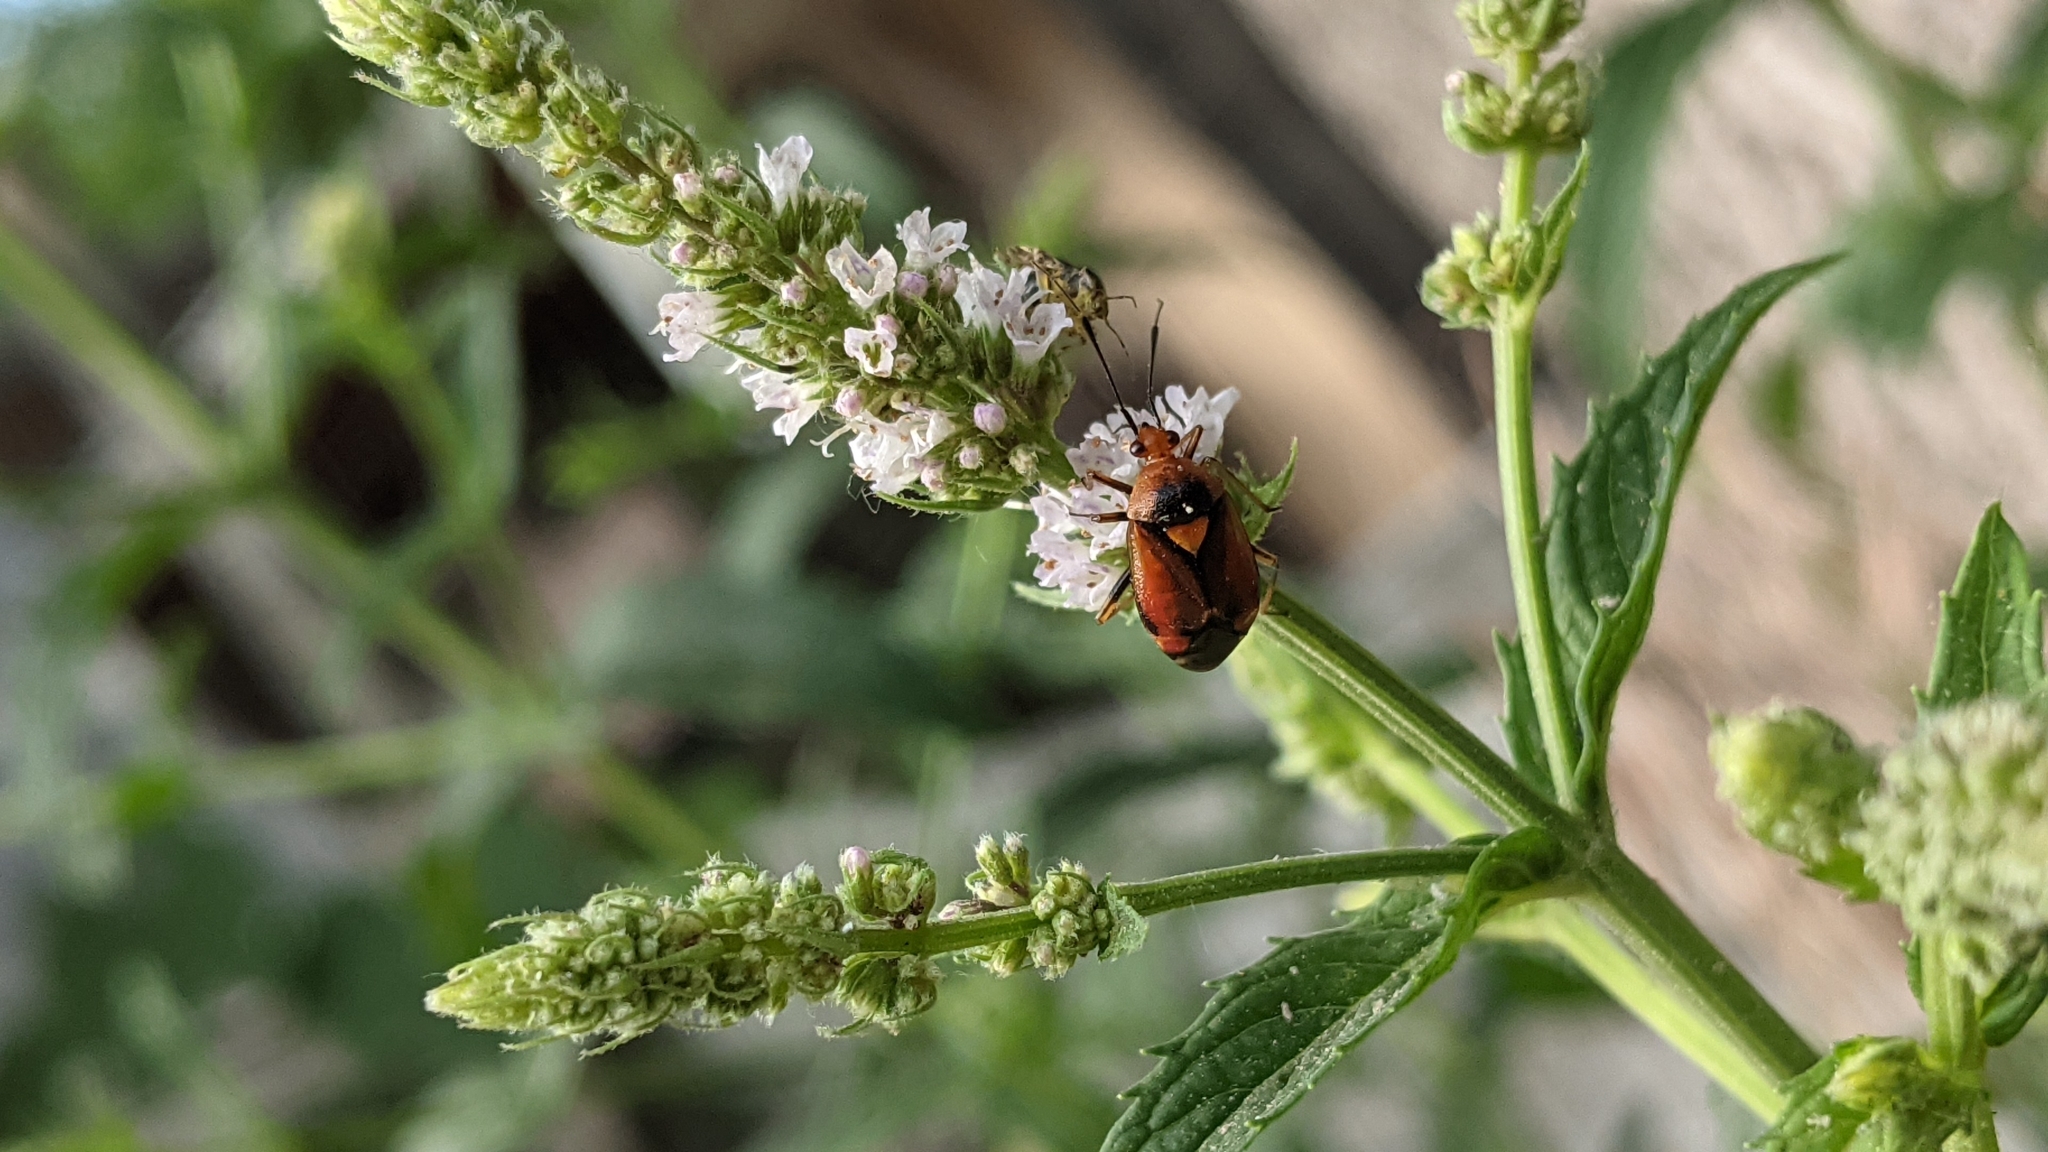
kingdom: Animalia
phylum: Arthropoda
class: Insecta
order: Hemiptera
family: Miridae
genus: Deraeocoris
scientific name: Deraeocoris ruber
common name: Plant bug
